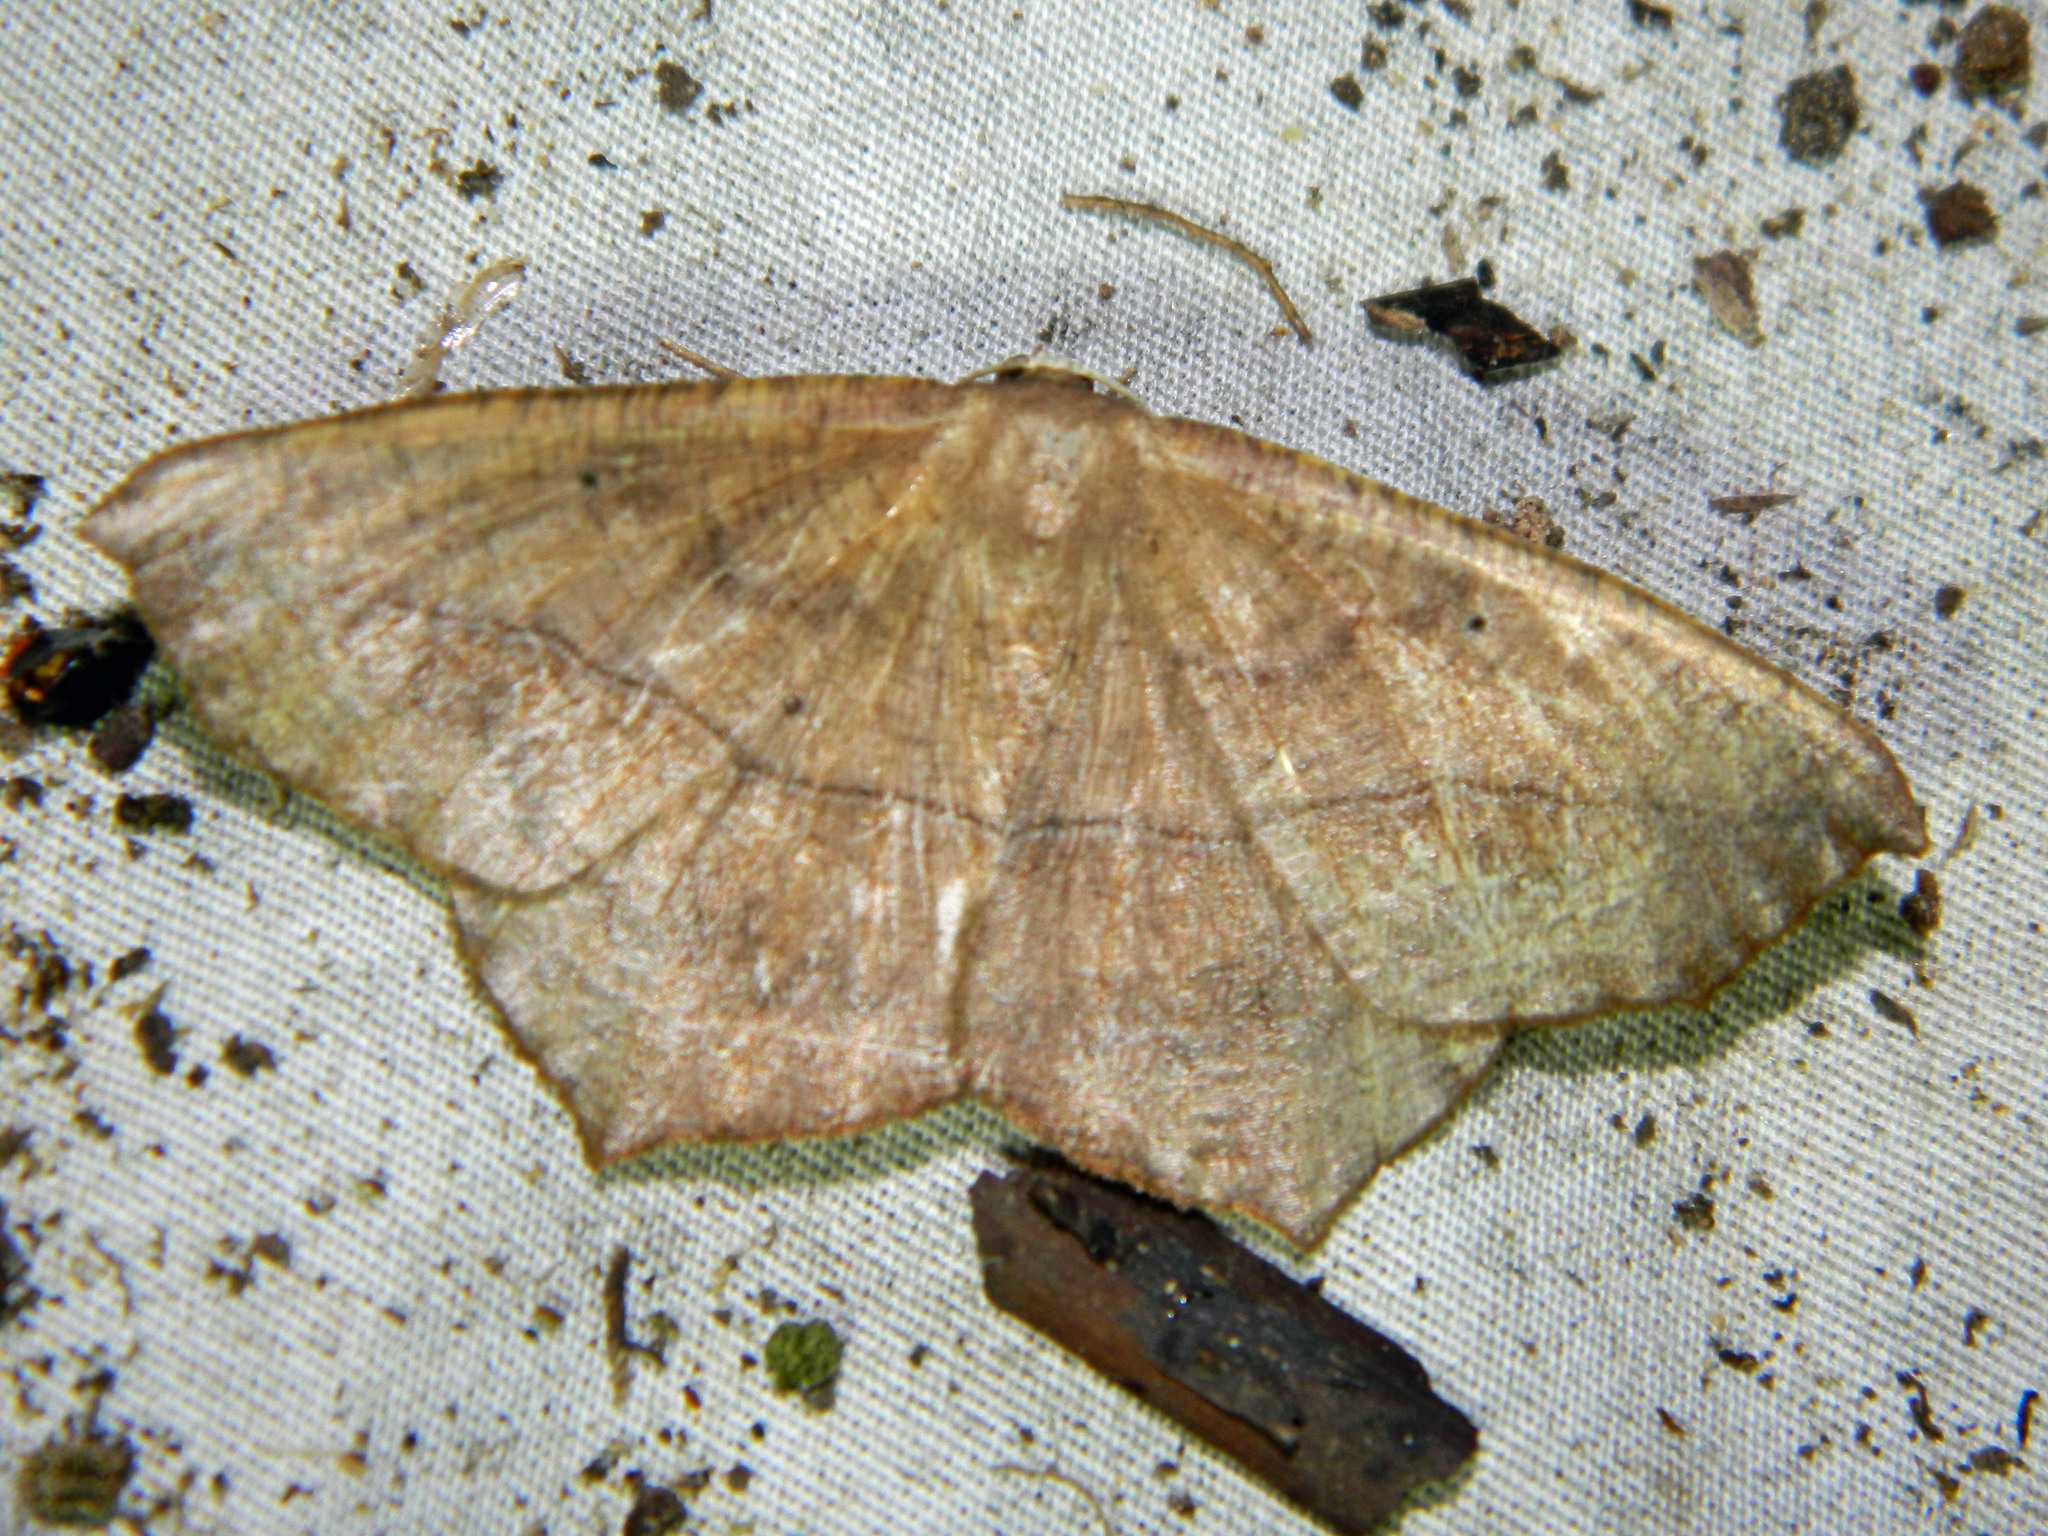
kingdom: Animalia
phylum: Arthropoda
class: Insecta
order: Lepidoptera
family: Geometridae
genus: Prochoerodes
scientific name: Prochoerodes lineola
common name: Large maple spanworm
